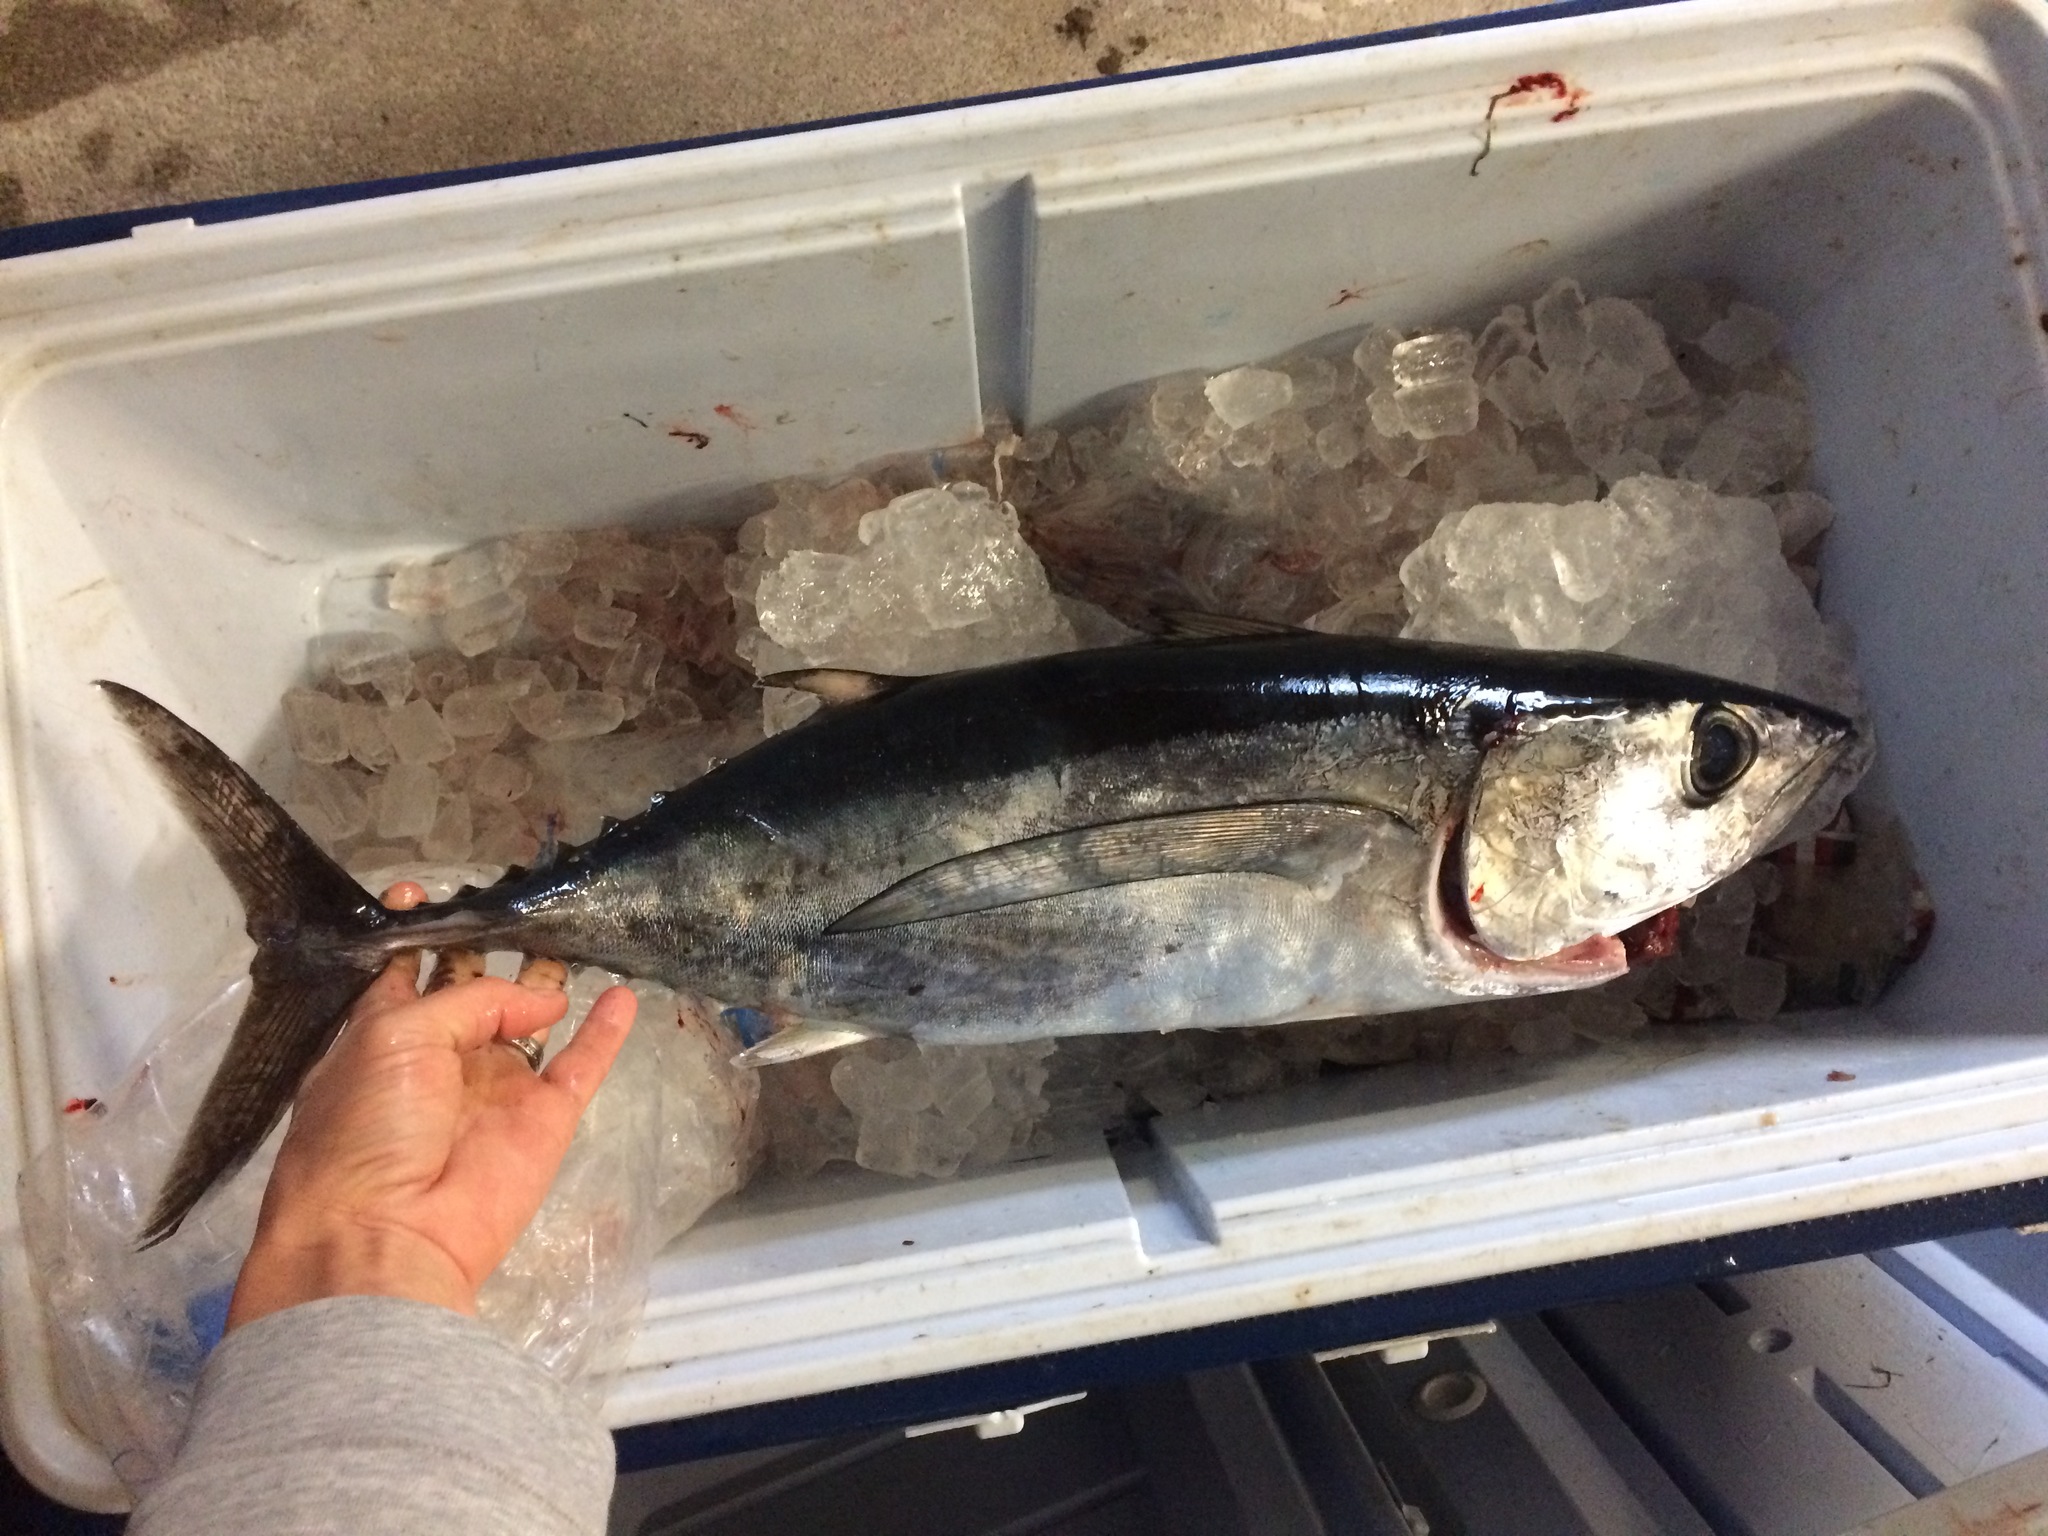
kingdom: Animalia
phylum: Chordata
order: Perciformes
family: Scombridae
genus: Thunnus
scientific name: Thunnus alalunga
